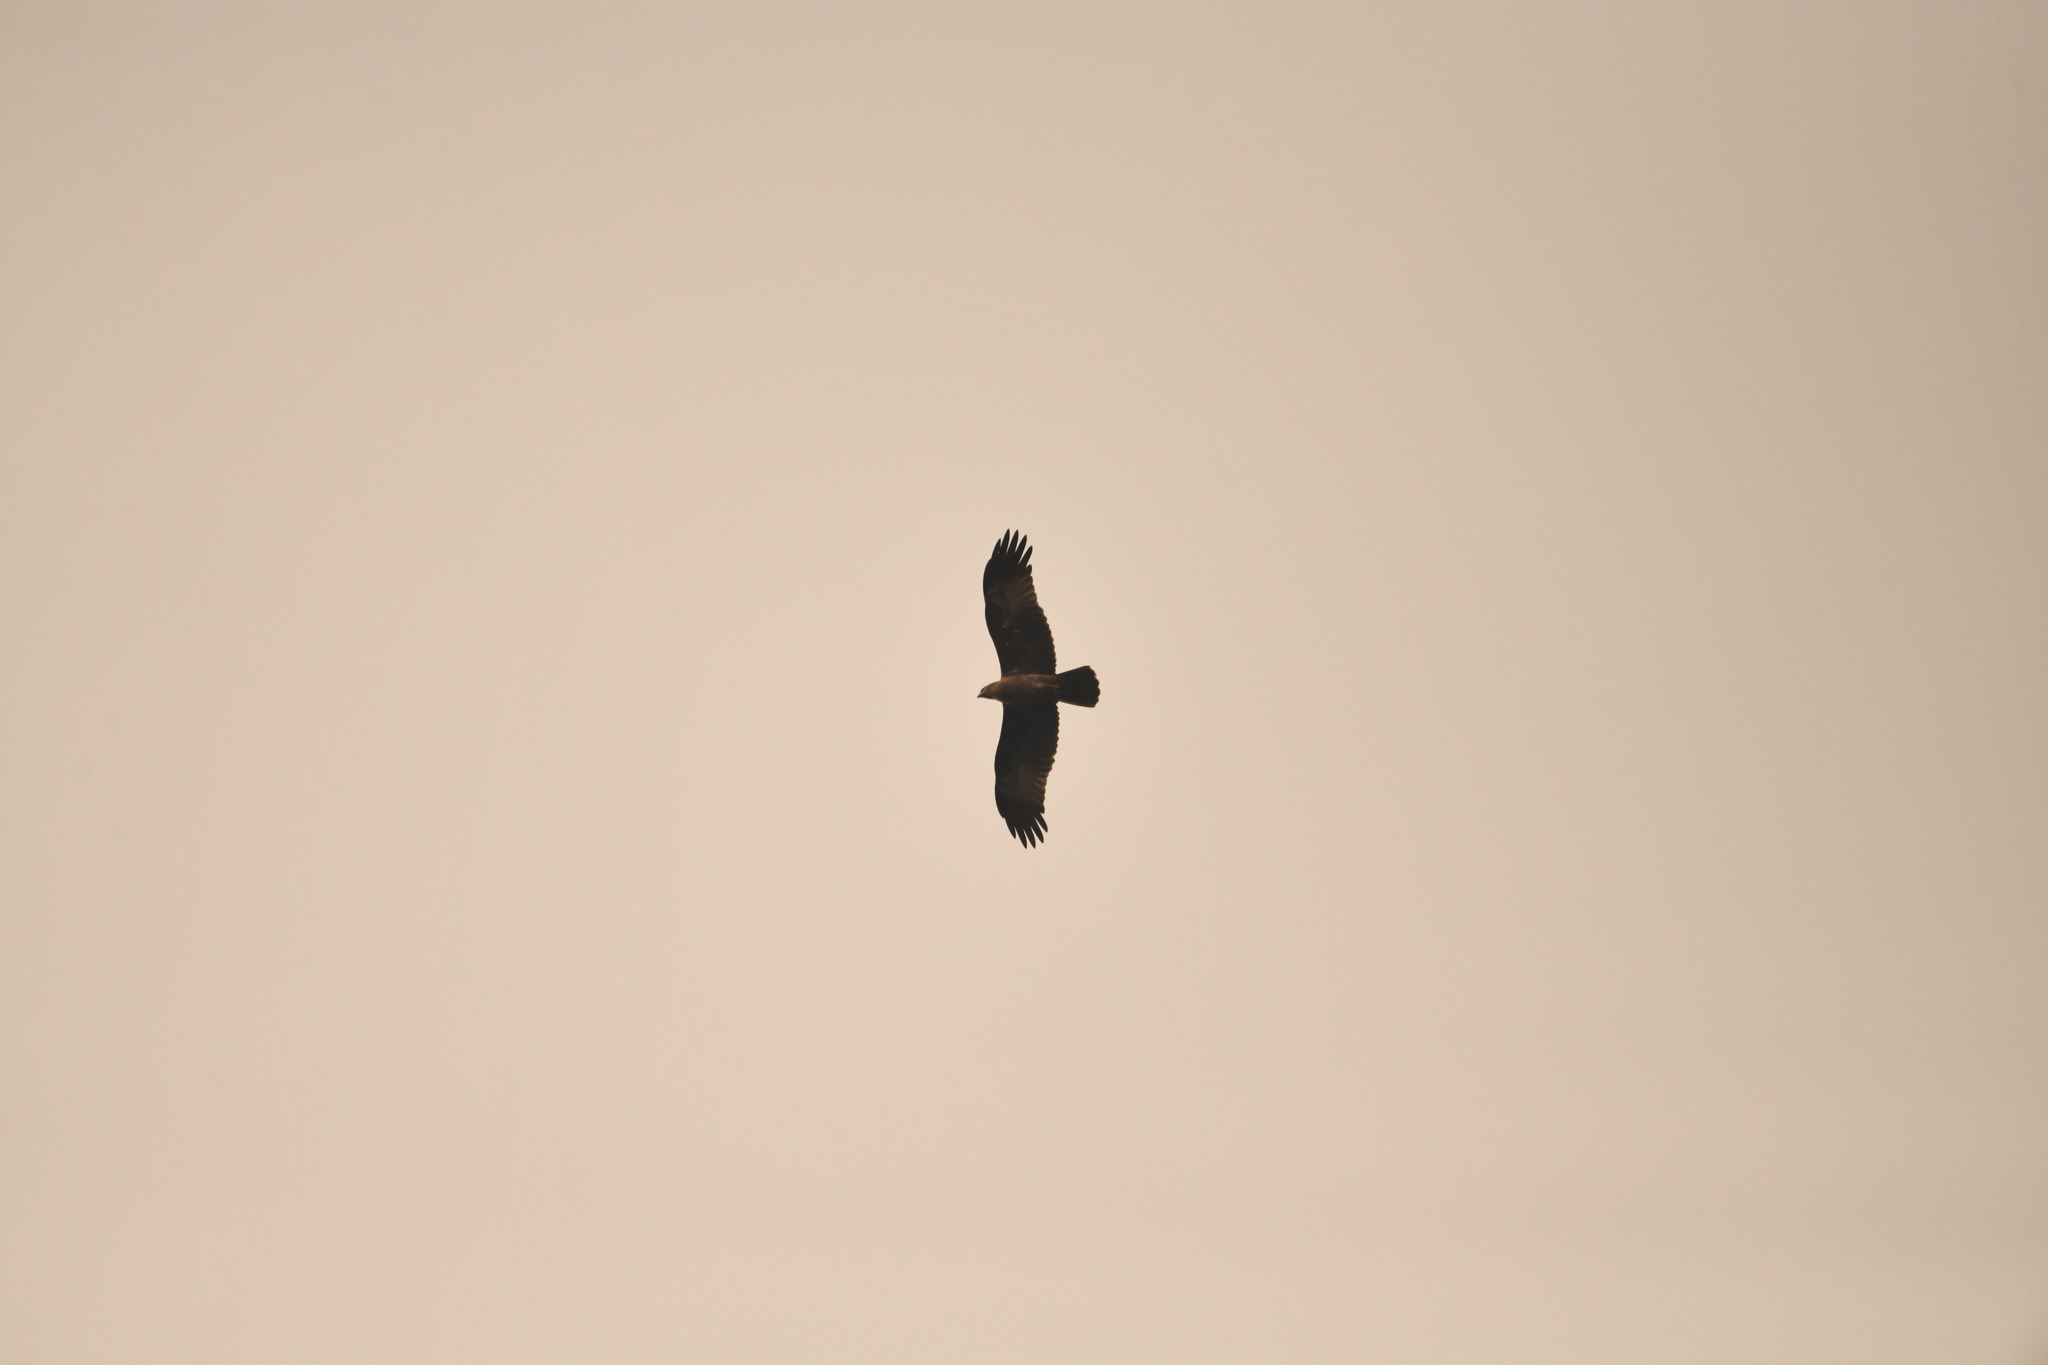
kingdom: Animalia
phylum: Chordata
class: Aves
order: Accipitriformes
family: Accipitridae
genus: Haliastur
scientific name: Haliastur indus
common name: Brahminy kite
